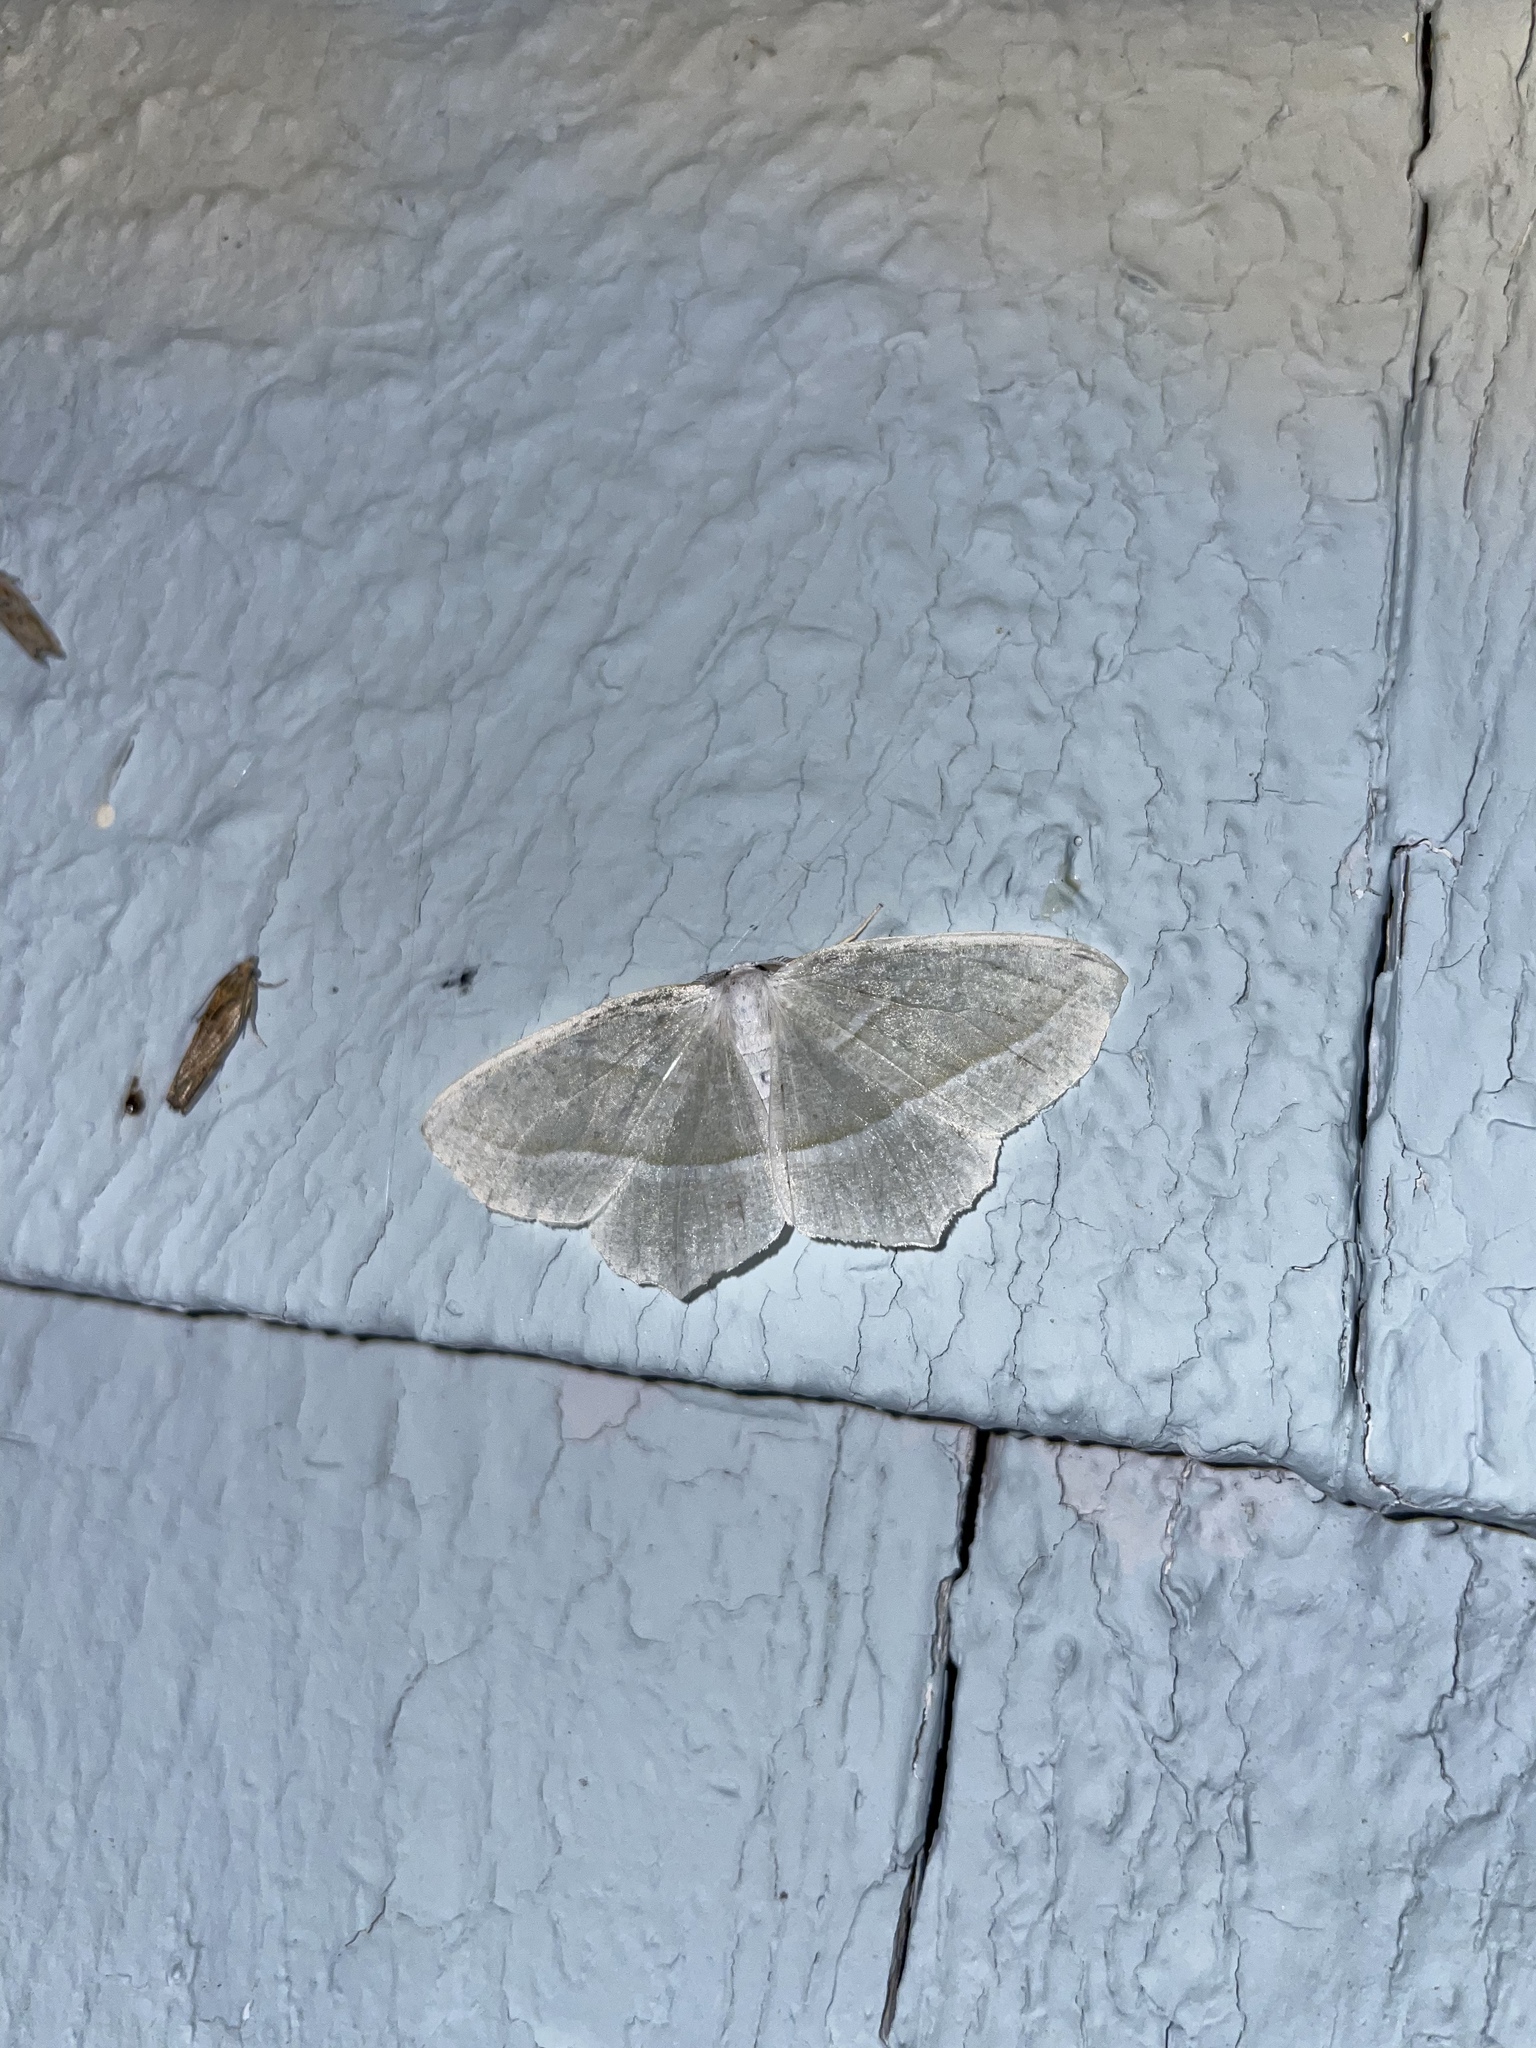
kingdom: Animalia
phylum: Arthropoda
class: Insecta
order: Lepidoptera
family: Geometridae
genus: Campaea
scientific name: Campaea perlata
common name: Fringed looper
